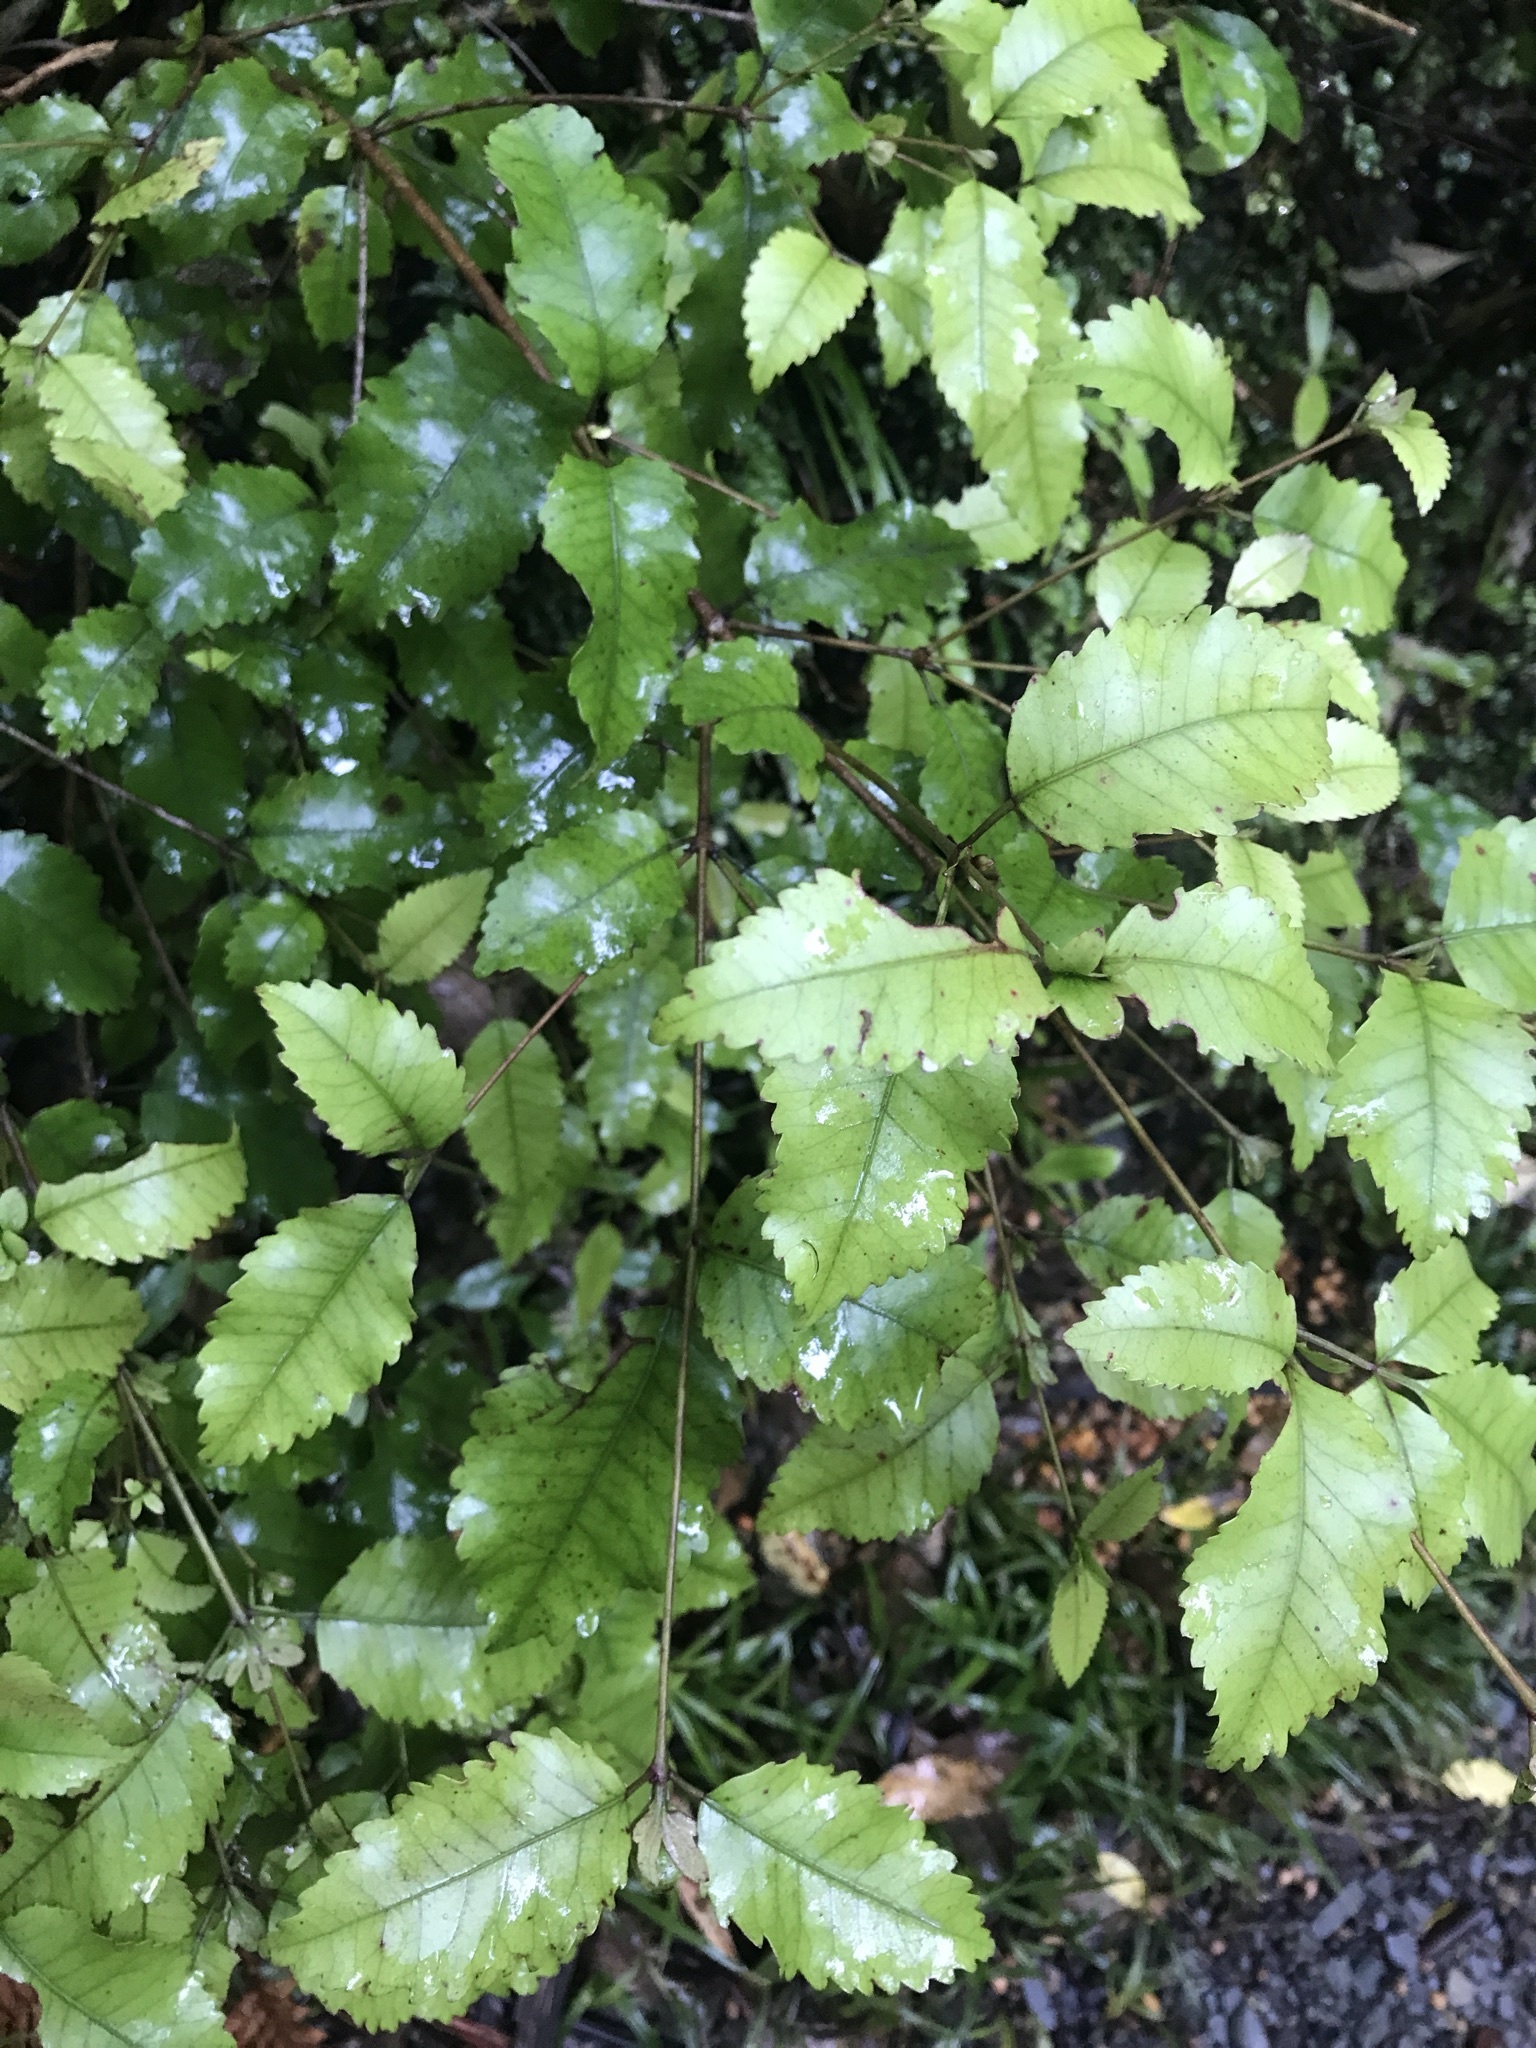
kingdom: Plantae
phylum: Tracheophyta
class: Magnoliopsida
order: Oxalidales
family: Cunoniaceae
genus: Pterophylla
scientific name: Pterophylla racemosa
